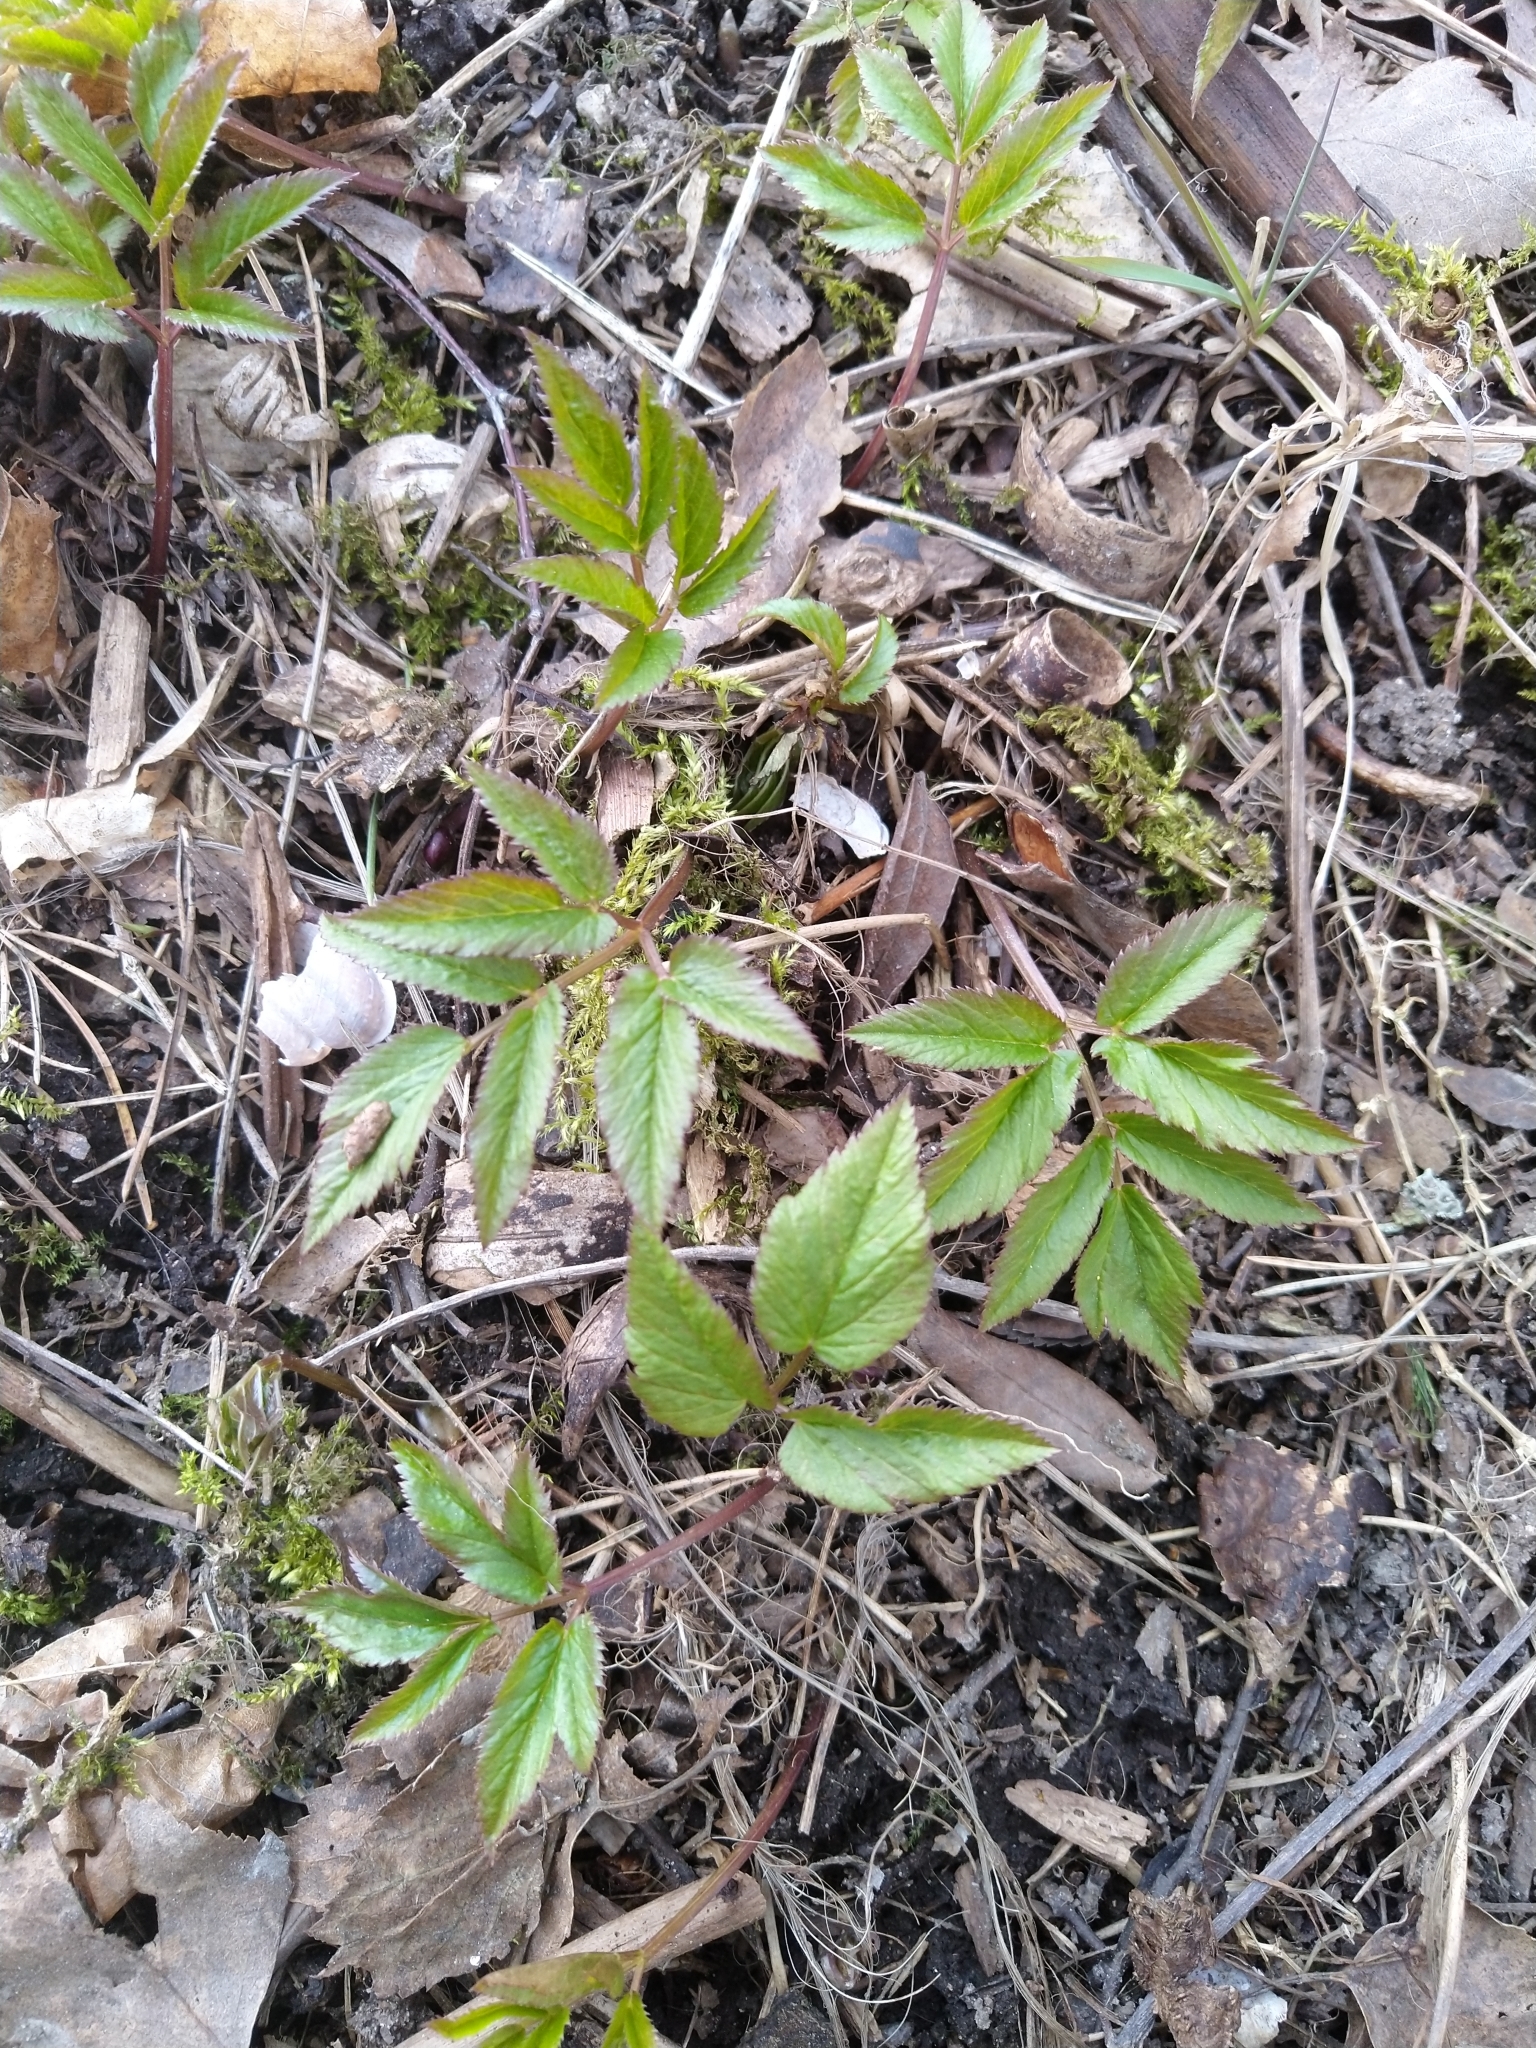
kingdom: Plantae
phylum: Tracheophyta
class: Magnoliopsida
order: Apiales
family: Apiaceae
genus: Aegopodium
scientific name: Aegopodium podagraria
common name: Ground-elder
